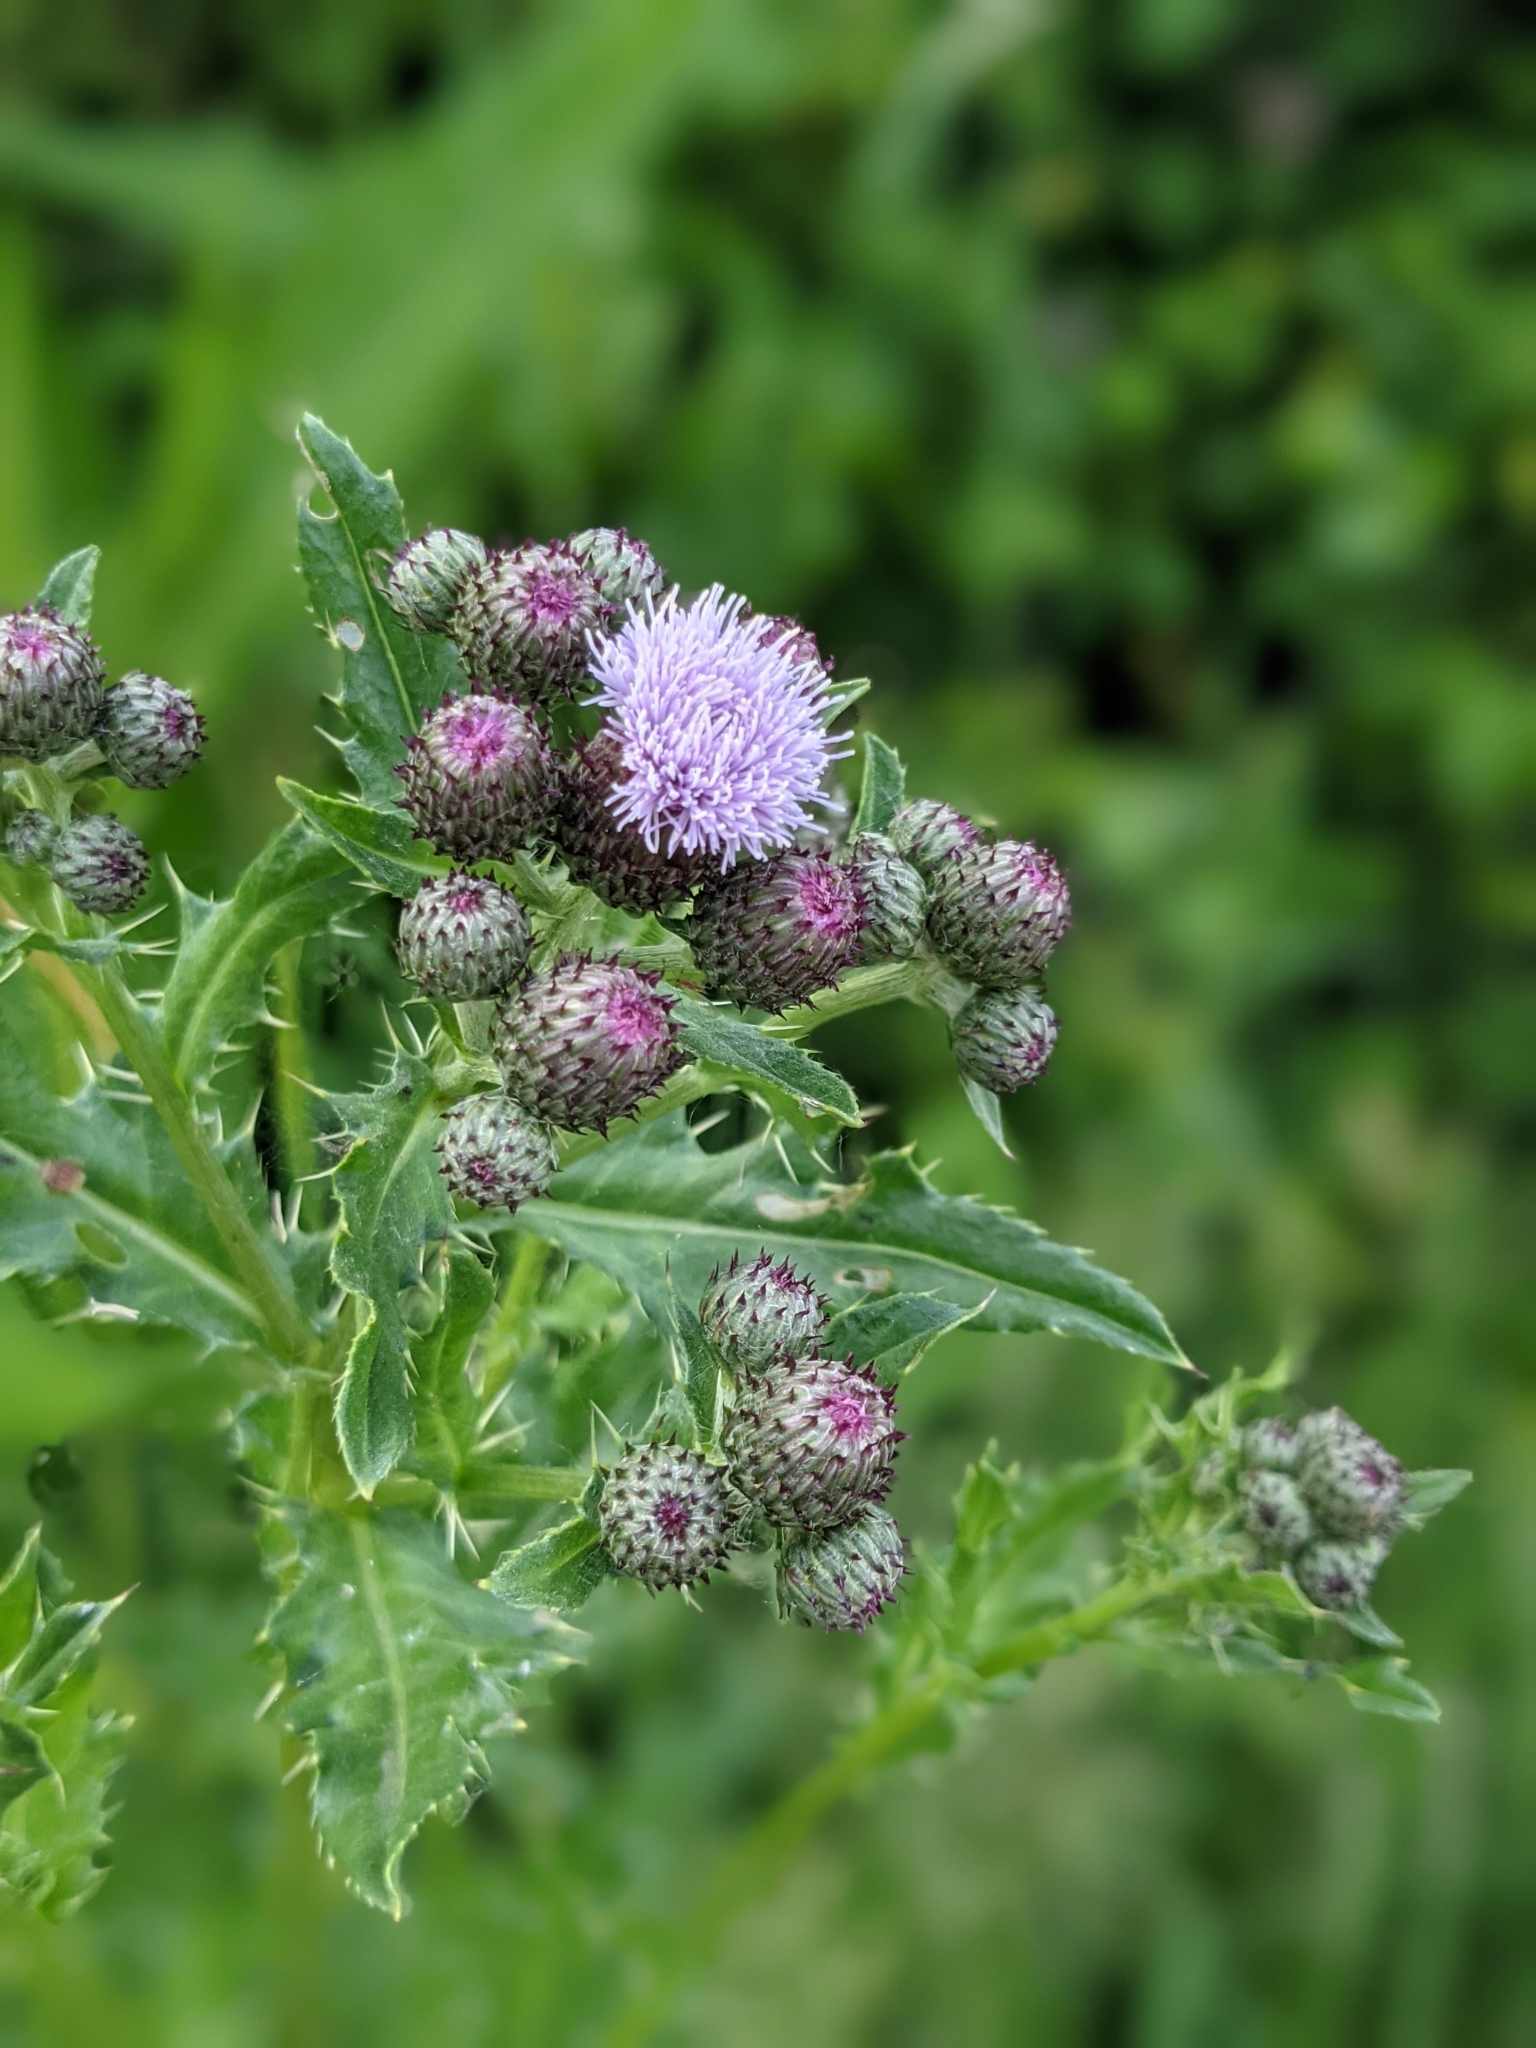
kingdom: Plantae
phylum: Tracheophyta
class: Magnoliopsida
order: Asterales
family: Asteraceae
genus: Cirsium
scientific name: Cirsium arvense
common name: Creeping thistle
